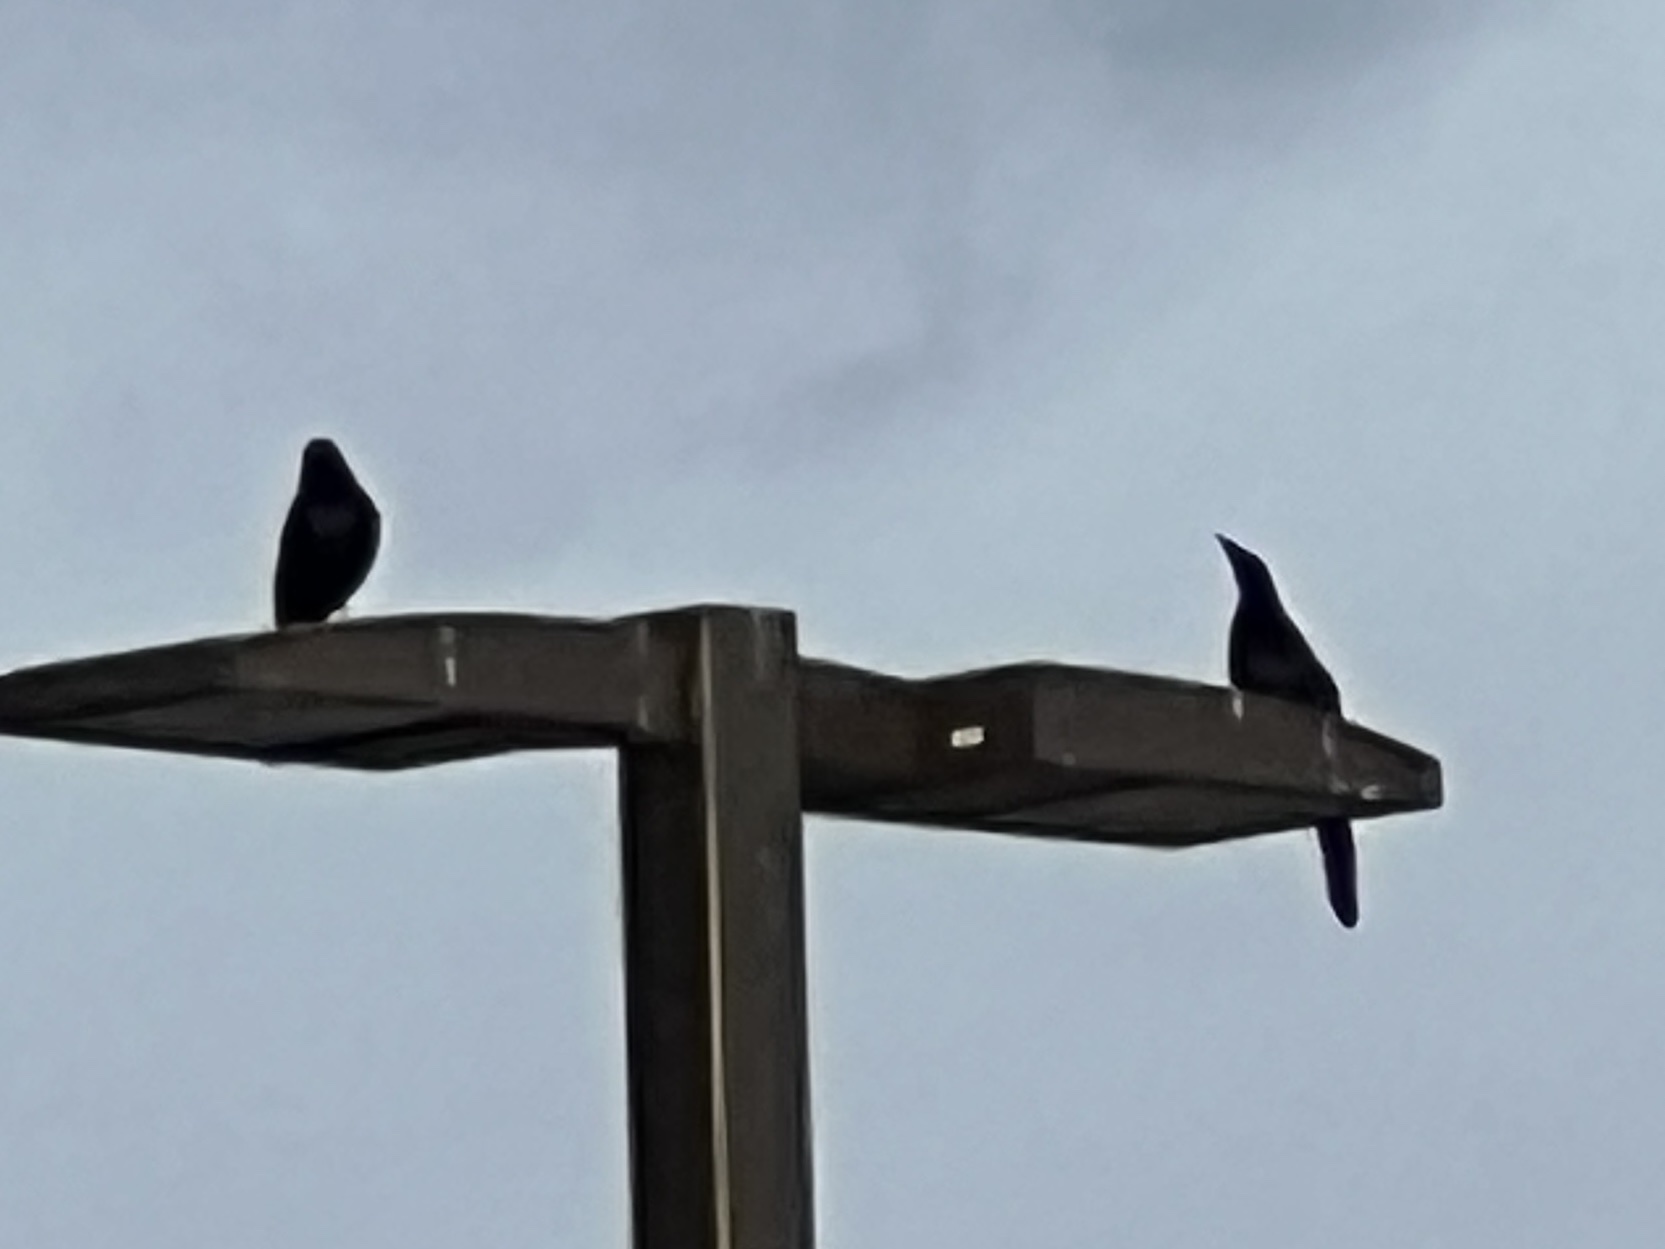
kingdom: Animalia
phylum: Chordata
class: Aves
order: Passeriformes
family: Icteridae
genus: Quiscalus
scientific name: Quiscalus mexicanus
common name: Great-tailed grackle
